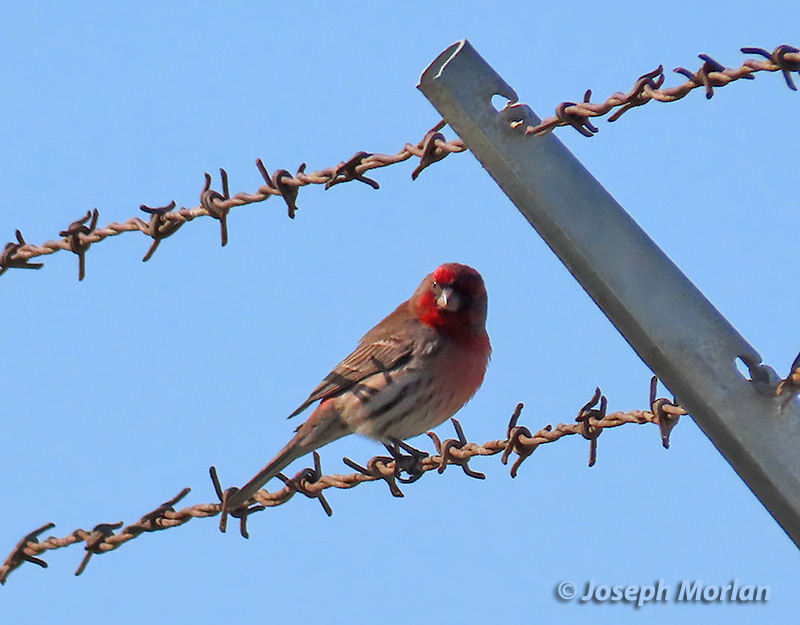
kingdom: Animalia
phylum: Chordata
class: Aves
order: Passeriformes
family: Fringillidae
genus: Haemorhous
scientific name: Haemorhous mexicanus
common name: House finch
